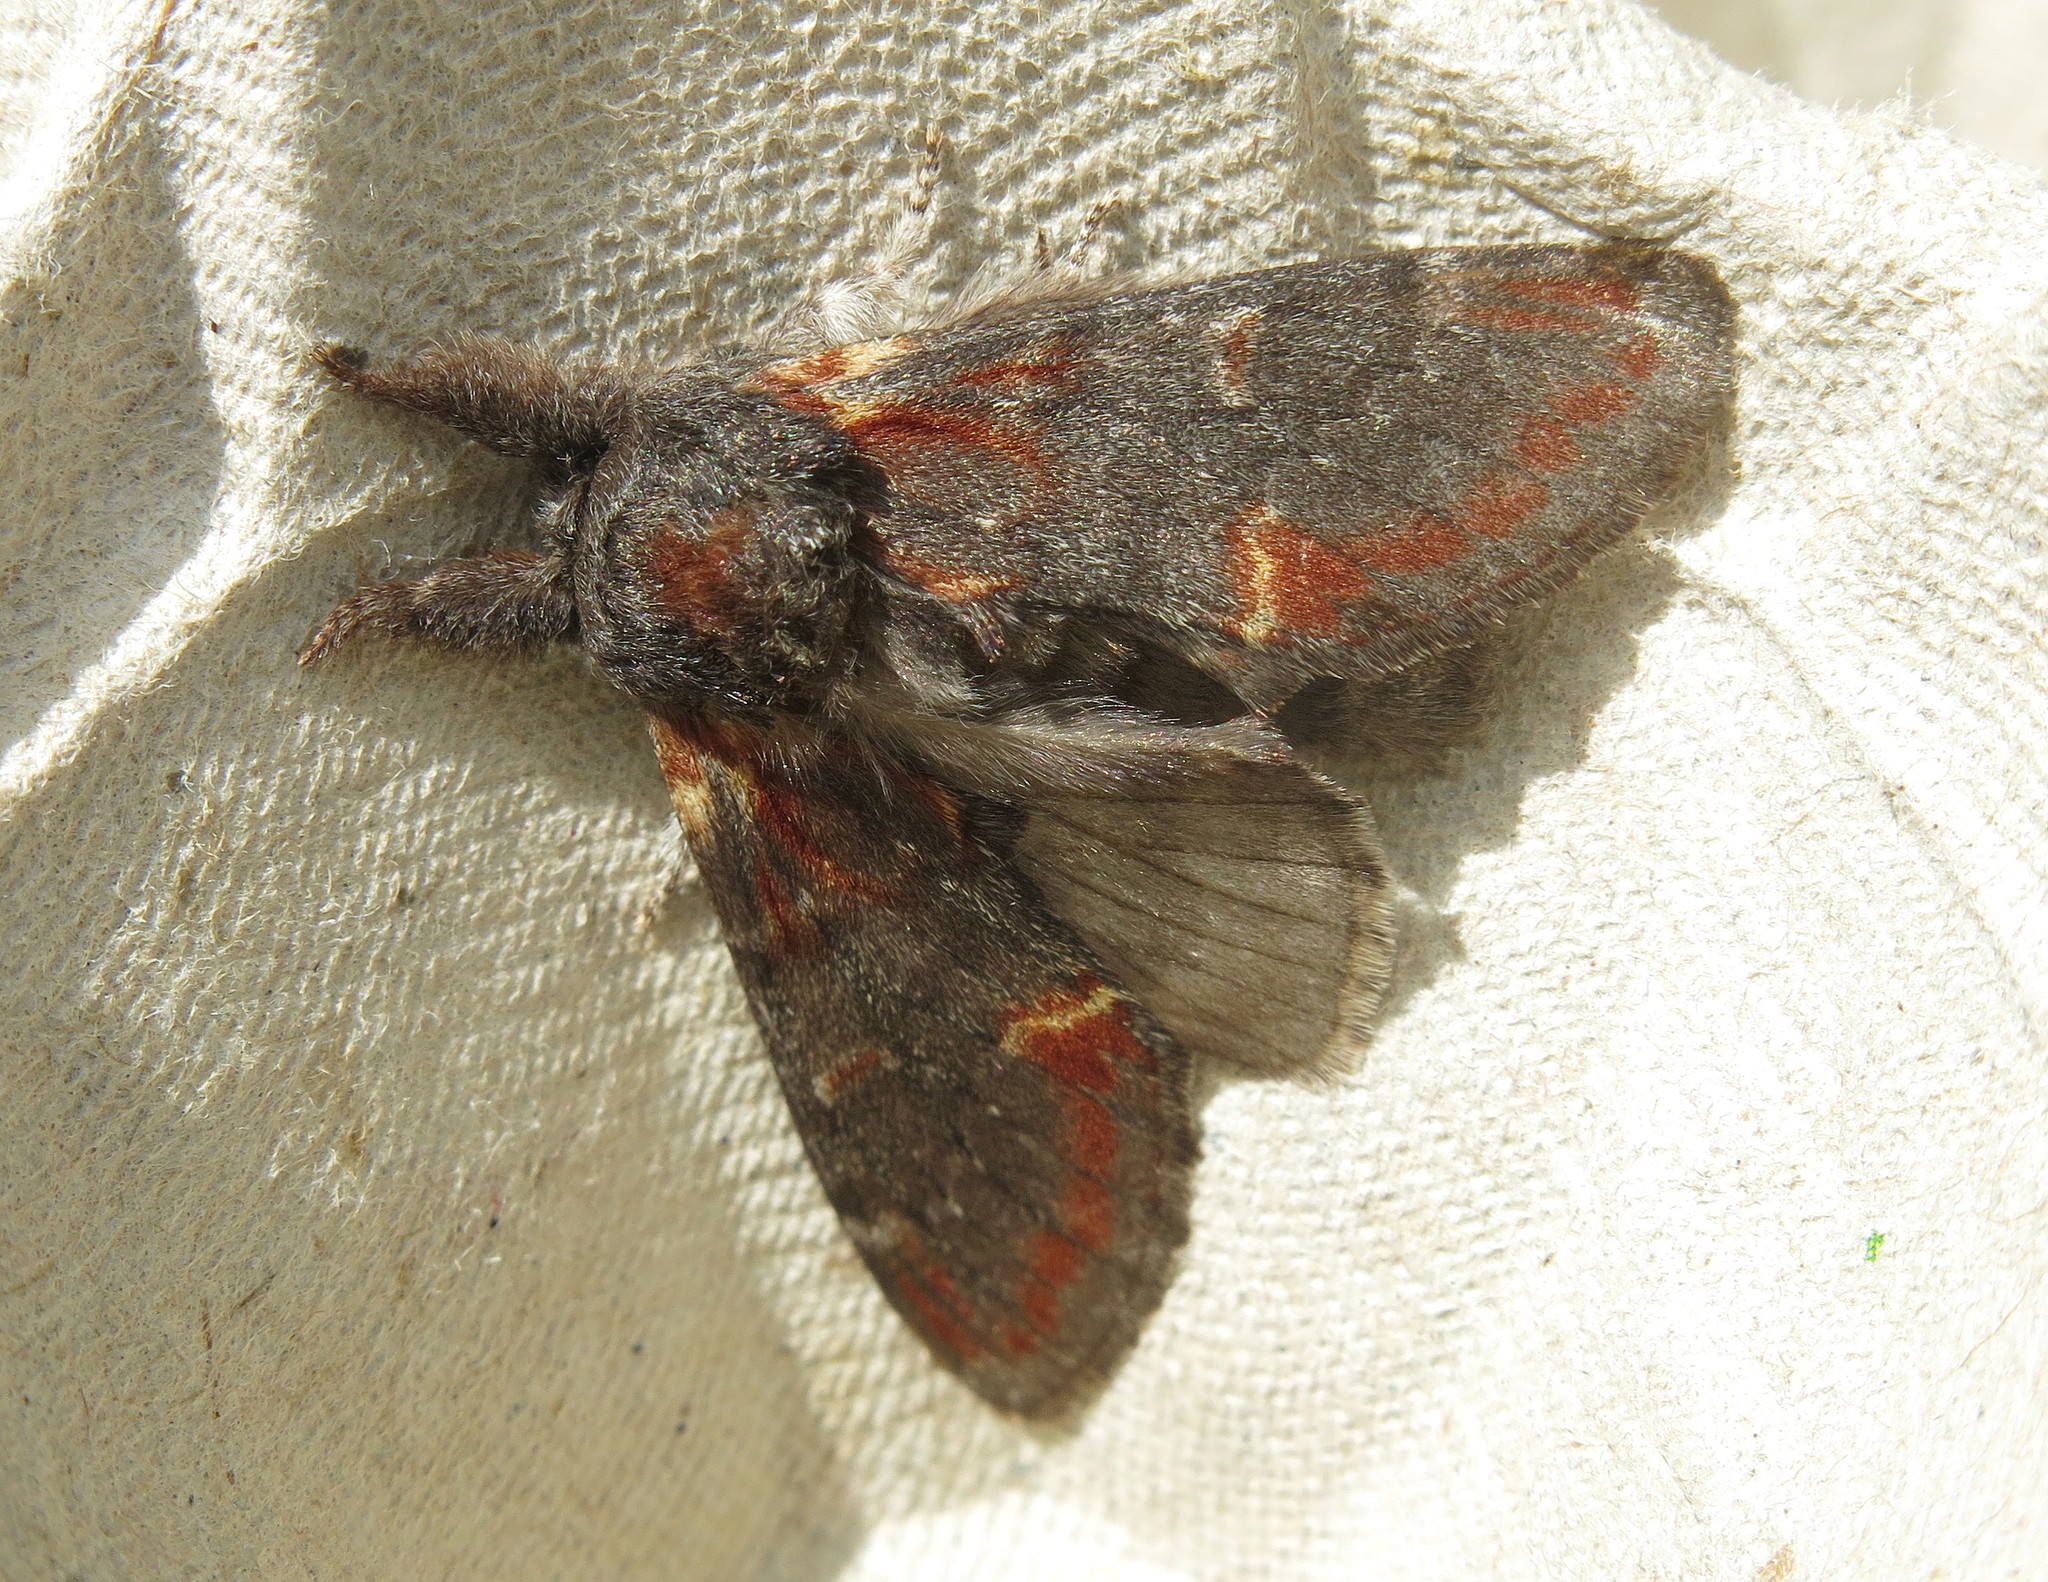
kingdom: Animalia
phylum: Arthropoda
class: Insecta
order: Lepidoptera
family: Notodontidae
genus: Notodonta
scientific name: Notodonta dromedarius
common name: Iron prominent
